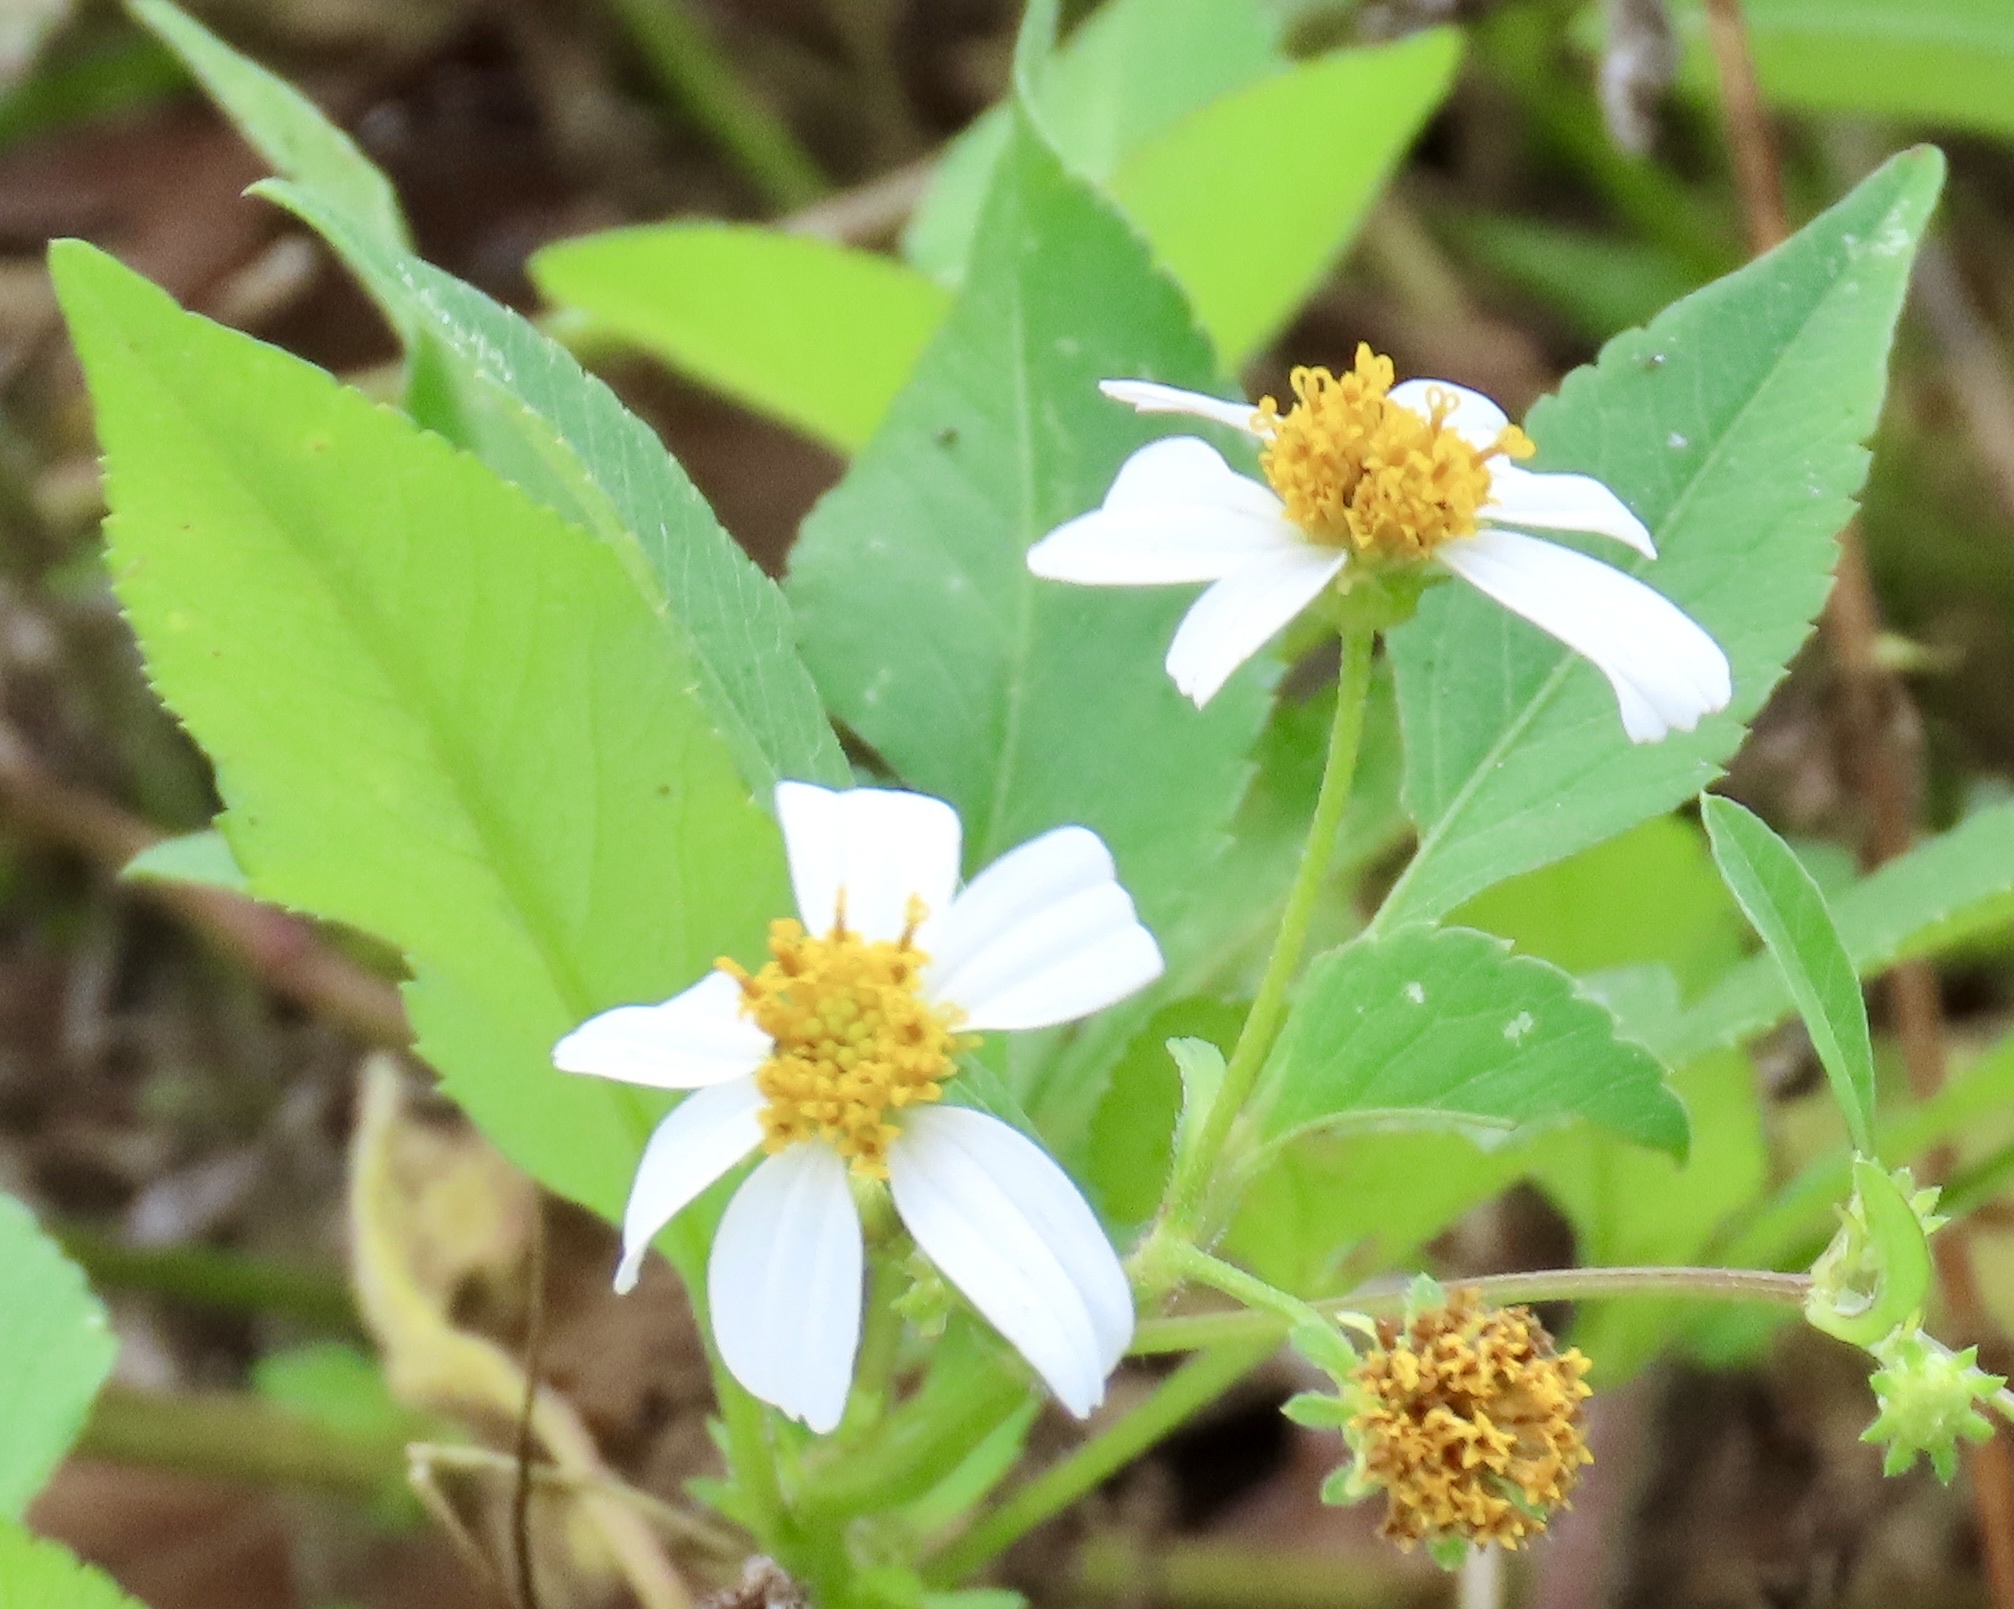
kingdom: Plantae
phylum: Tracheophyta
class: Magnoliopsida
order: Asterales
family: Asteraceae
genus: Bidens
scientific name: Bidens alba
